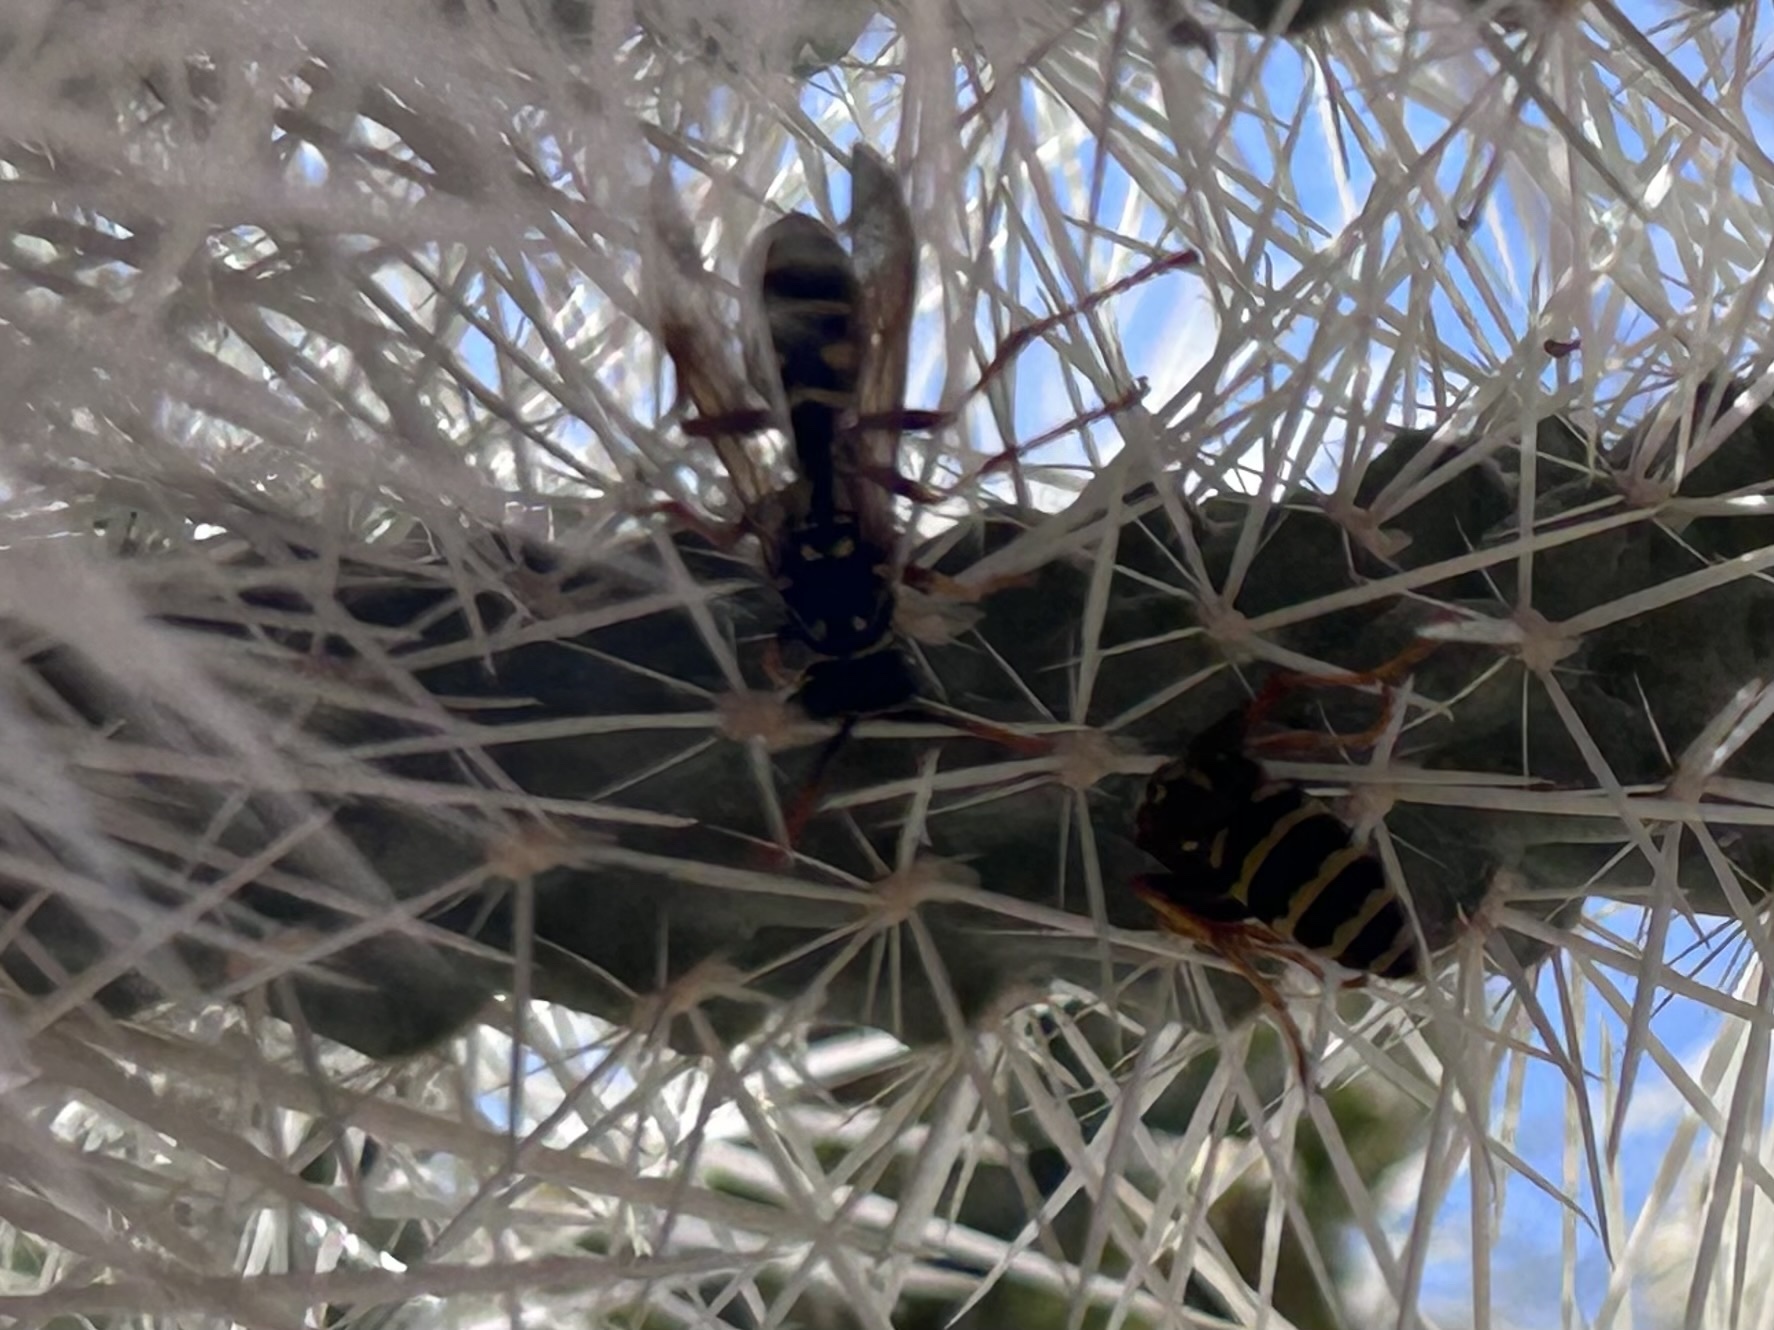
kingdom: Animalia
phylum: Arthropoda
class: Insecta
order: Hymenoptera
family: Eumenidae
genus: Polistes
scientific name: Polistes dominula
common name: Paper wasp
